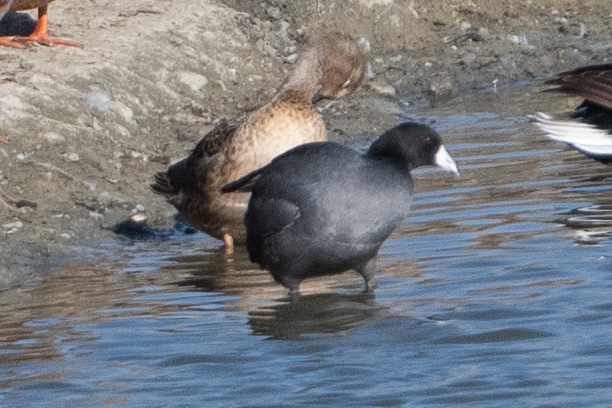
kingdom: Animalia
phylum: Chordata
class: Aves
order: Gruiformes
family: Rallidae
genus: Fulica
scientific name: Fulica americana
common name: American coot
